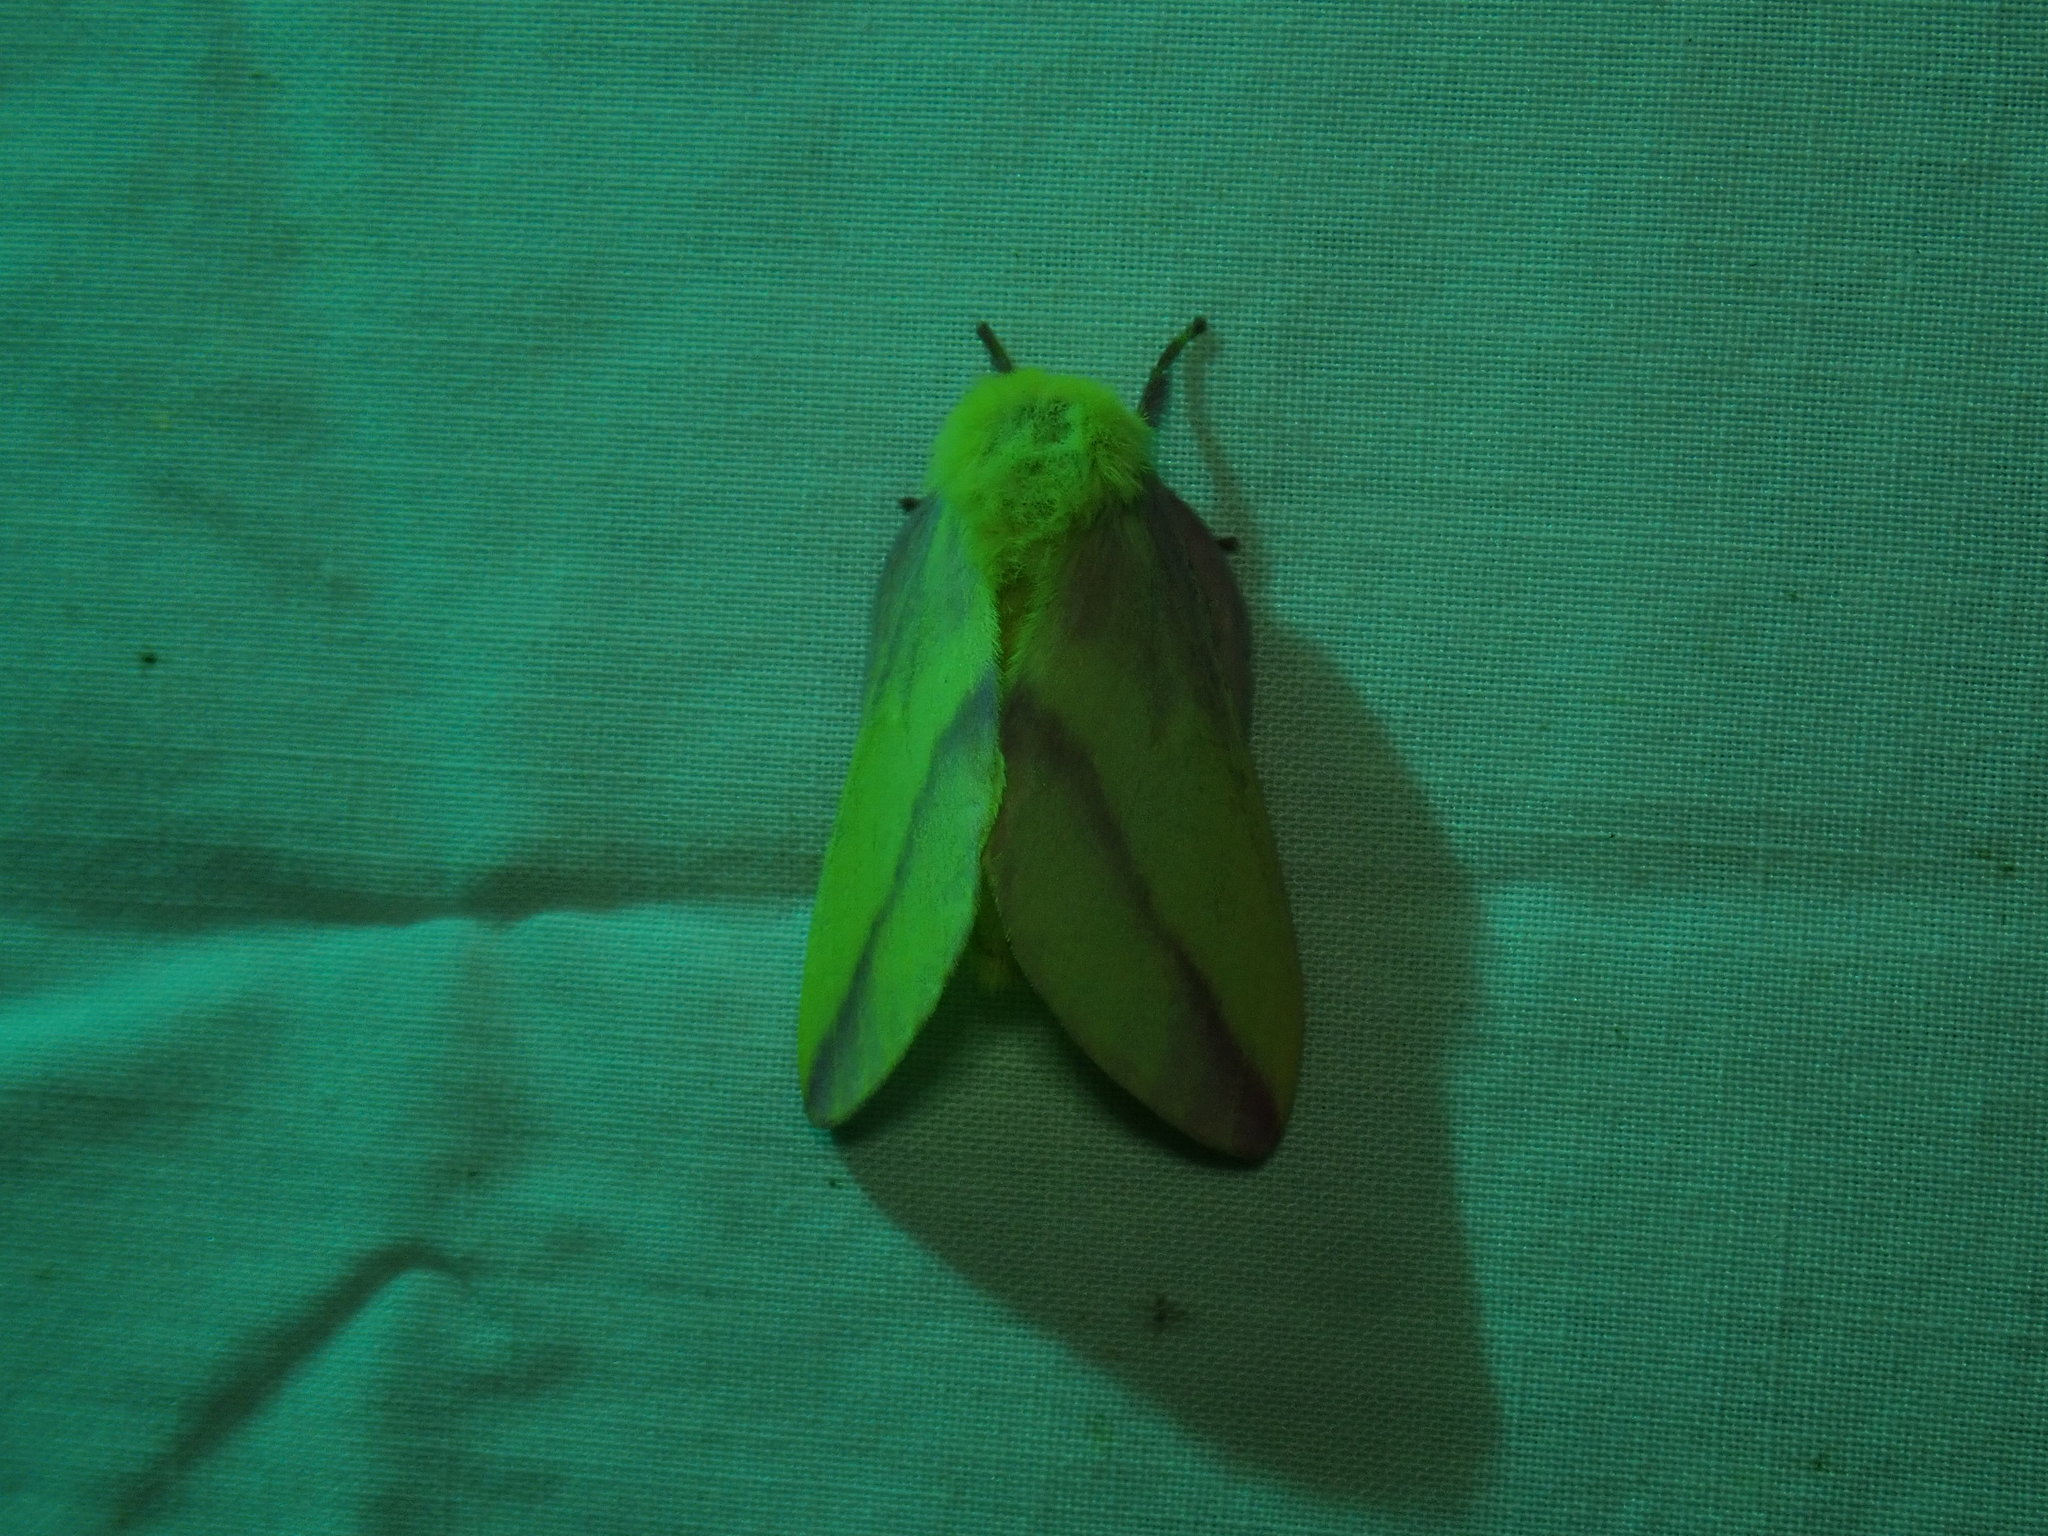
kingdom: Animalia
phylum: Arthropoda
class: Insecta
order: Lepidoptera
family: Saturniidae
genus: Dryocampa
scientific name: Dryocampa rubicunda
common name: Rosy maple moth
